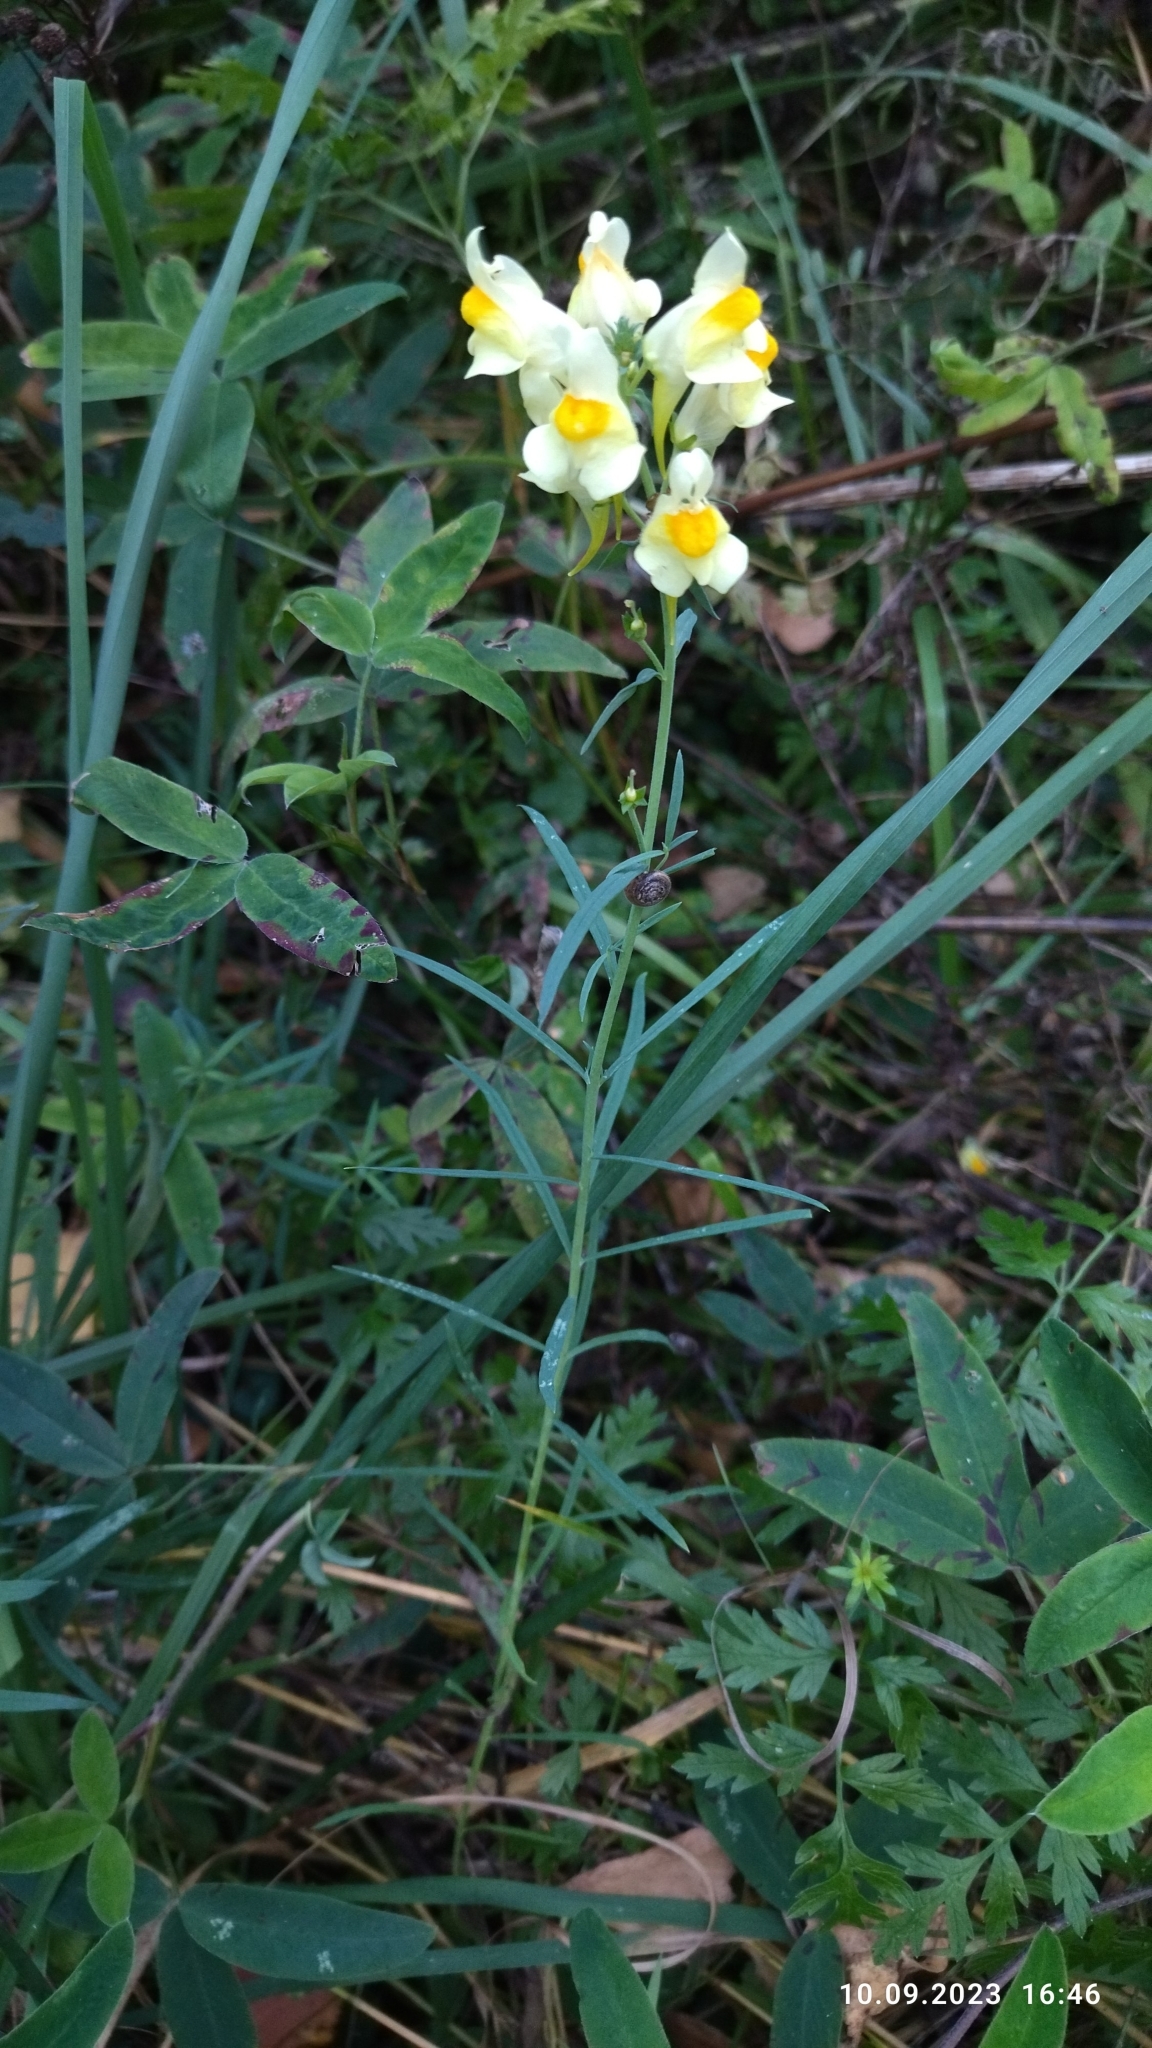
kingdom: Plantae
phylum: Tracheophyta
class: Magnoliopsida
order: Lamiales
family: Plantaginaceae
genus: Linaria
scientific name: Linaria vulgaris
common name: Butter and eggs
